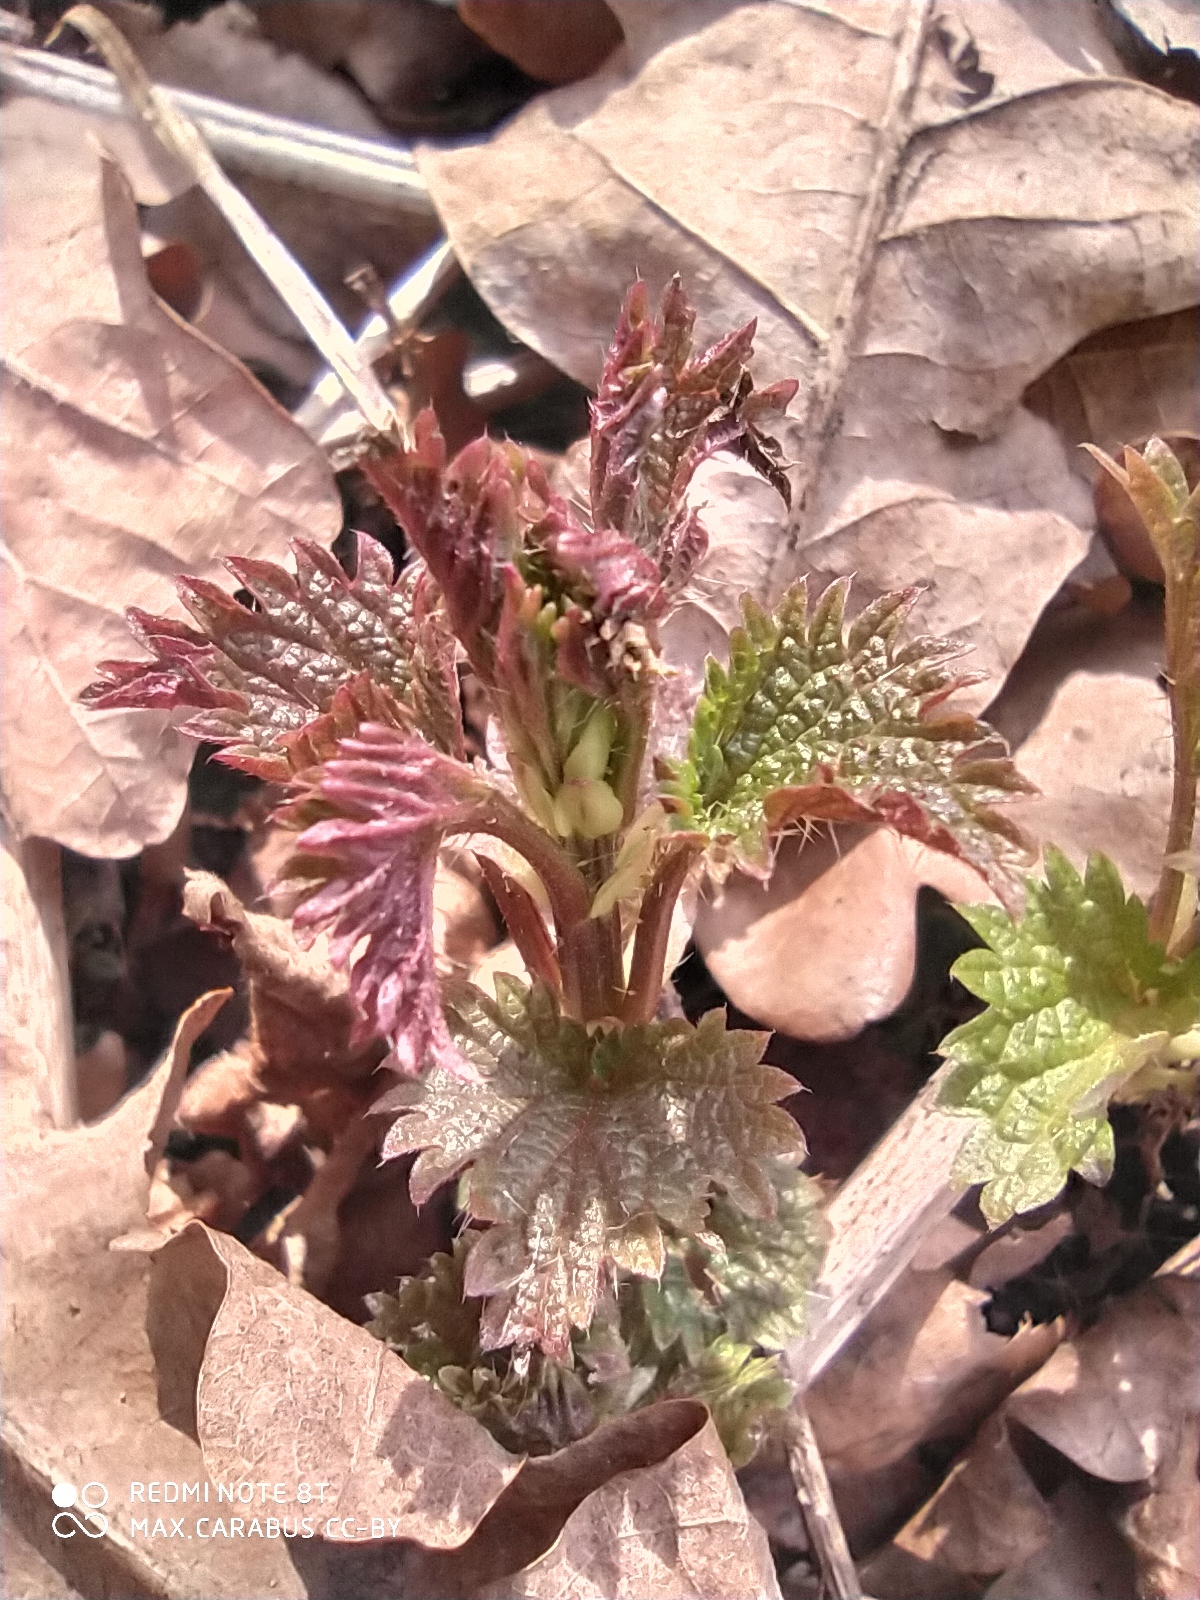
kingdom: Plantae
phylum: Tracheophyta
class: Magnoliopsida
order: Rosales
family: Urticaceae
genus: Urtica
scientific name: Urtica dioica
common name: Common nettle
